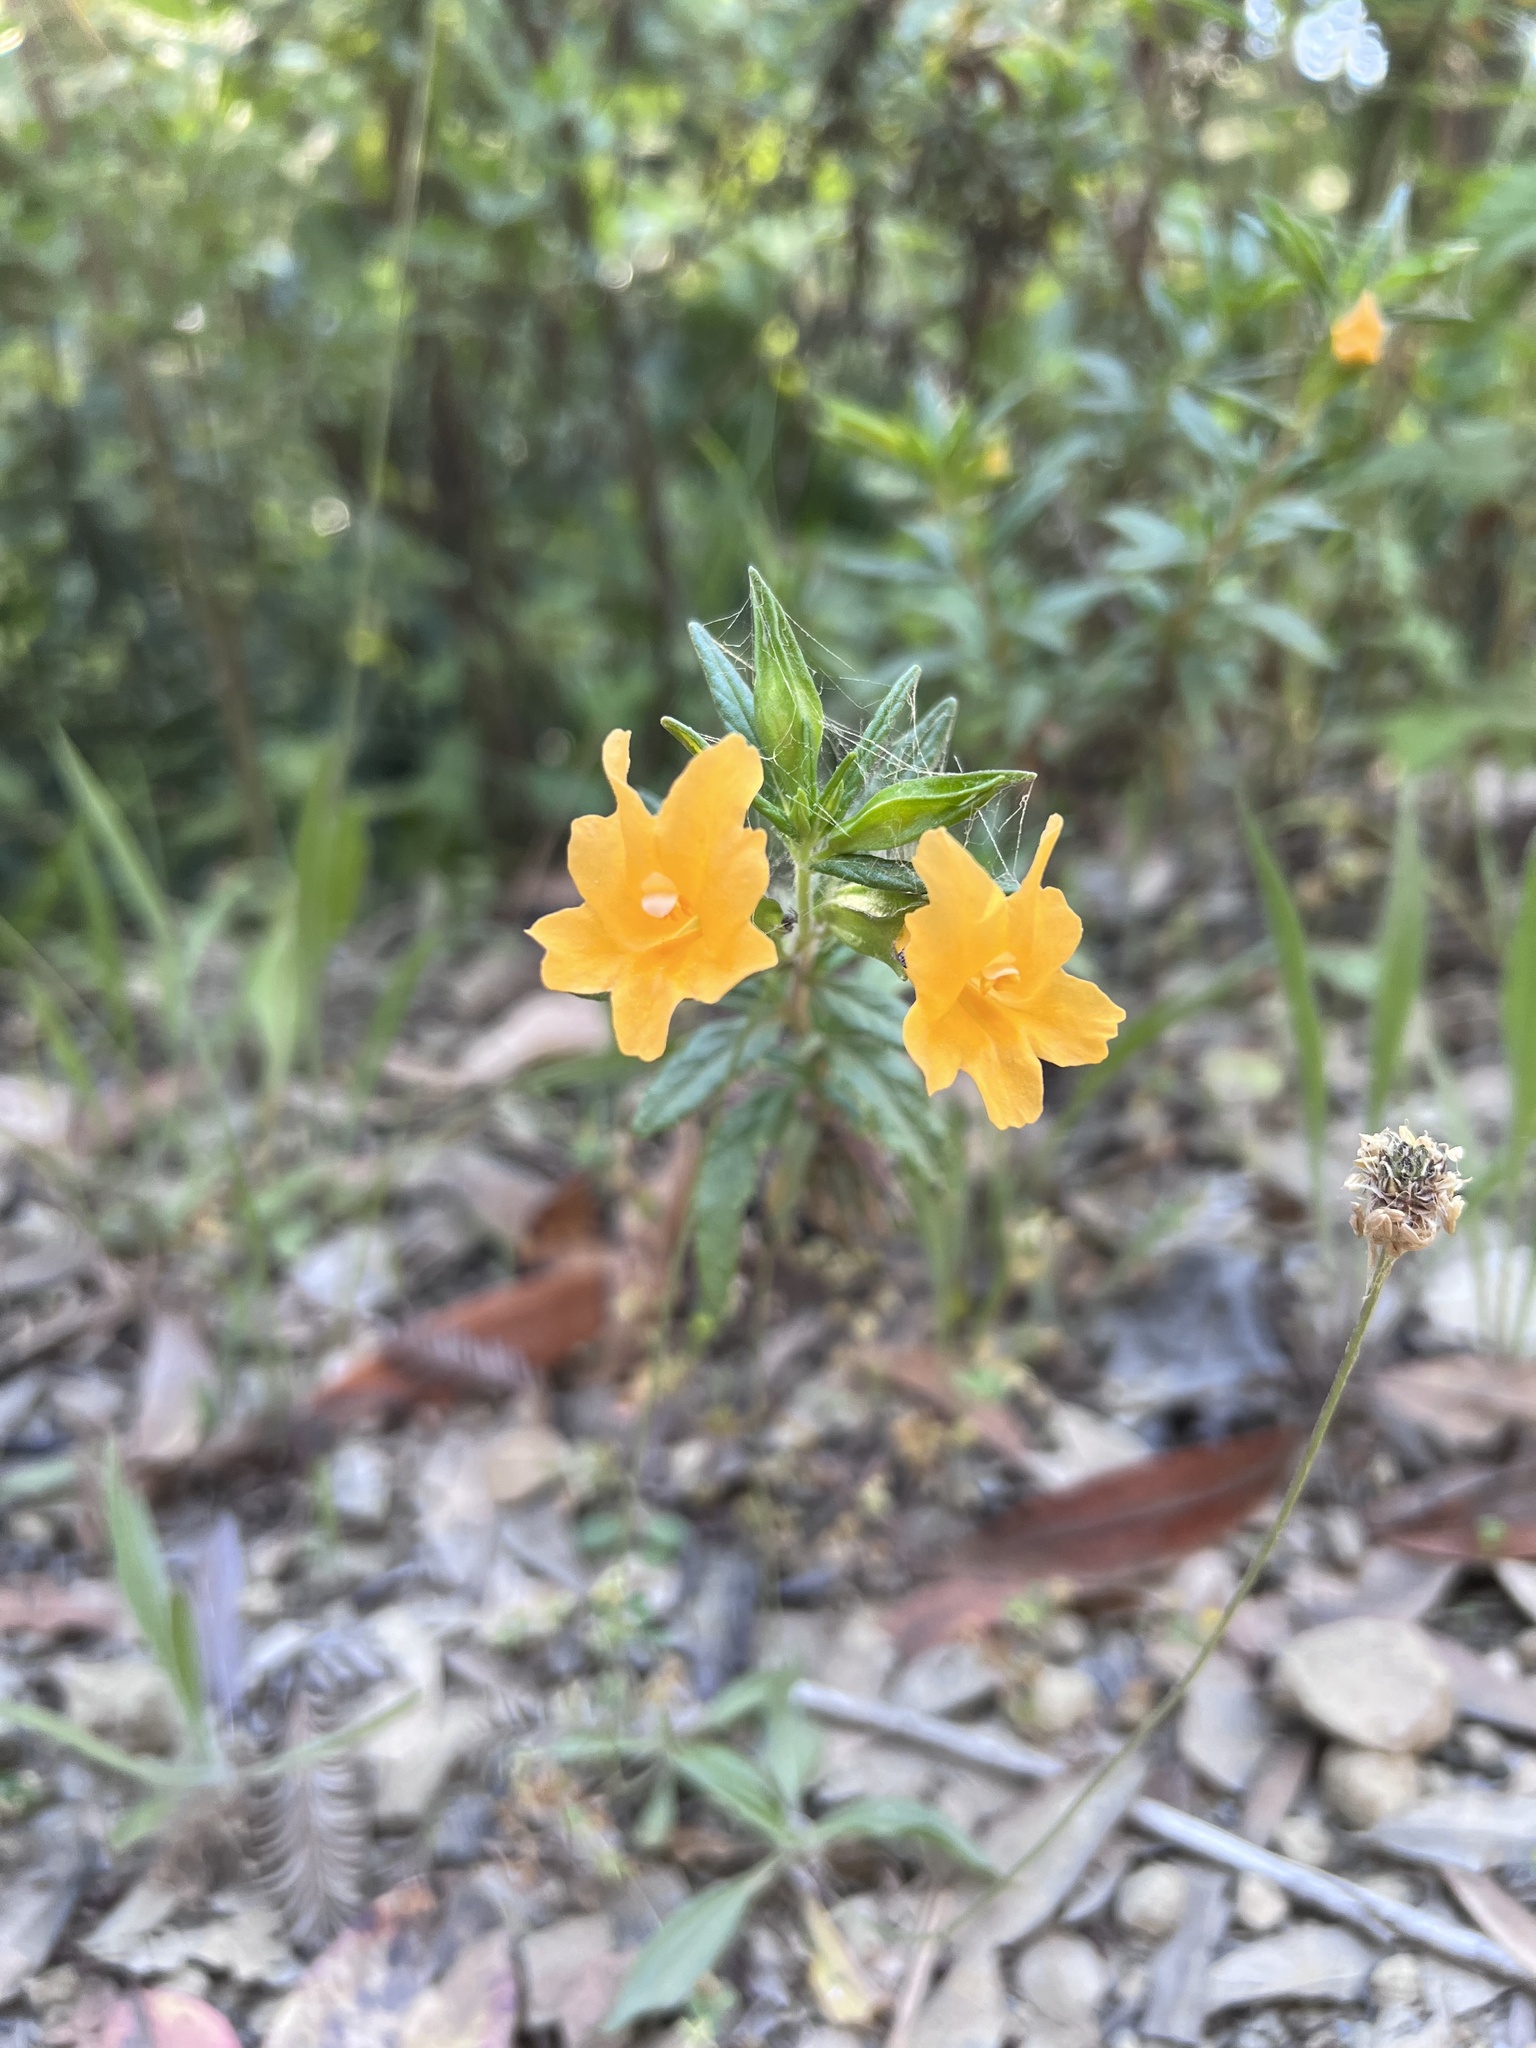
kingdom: Plantae
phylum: Tracheophyta
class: Magnoliopsida
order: Lamiales
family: Phrymaceae
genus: Diplacus
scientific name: Diplacus aurantiacus
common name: Bush monkey-flower
